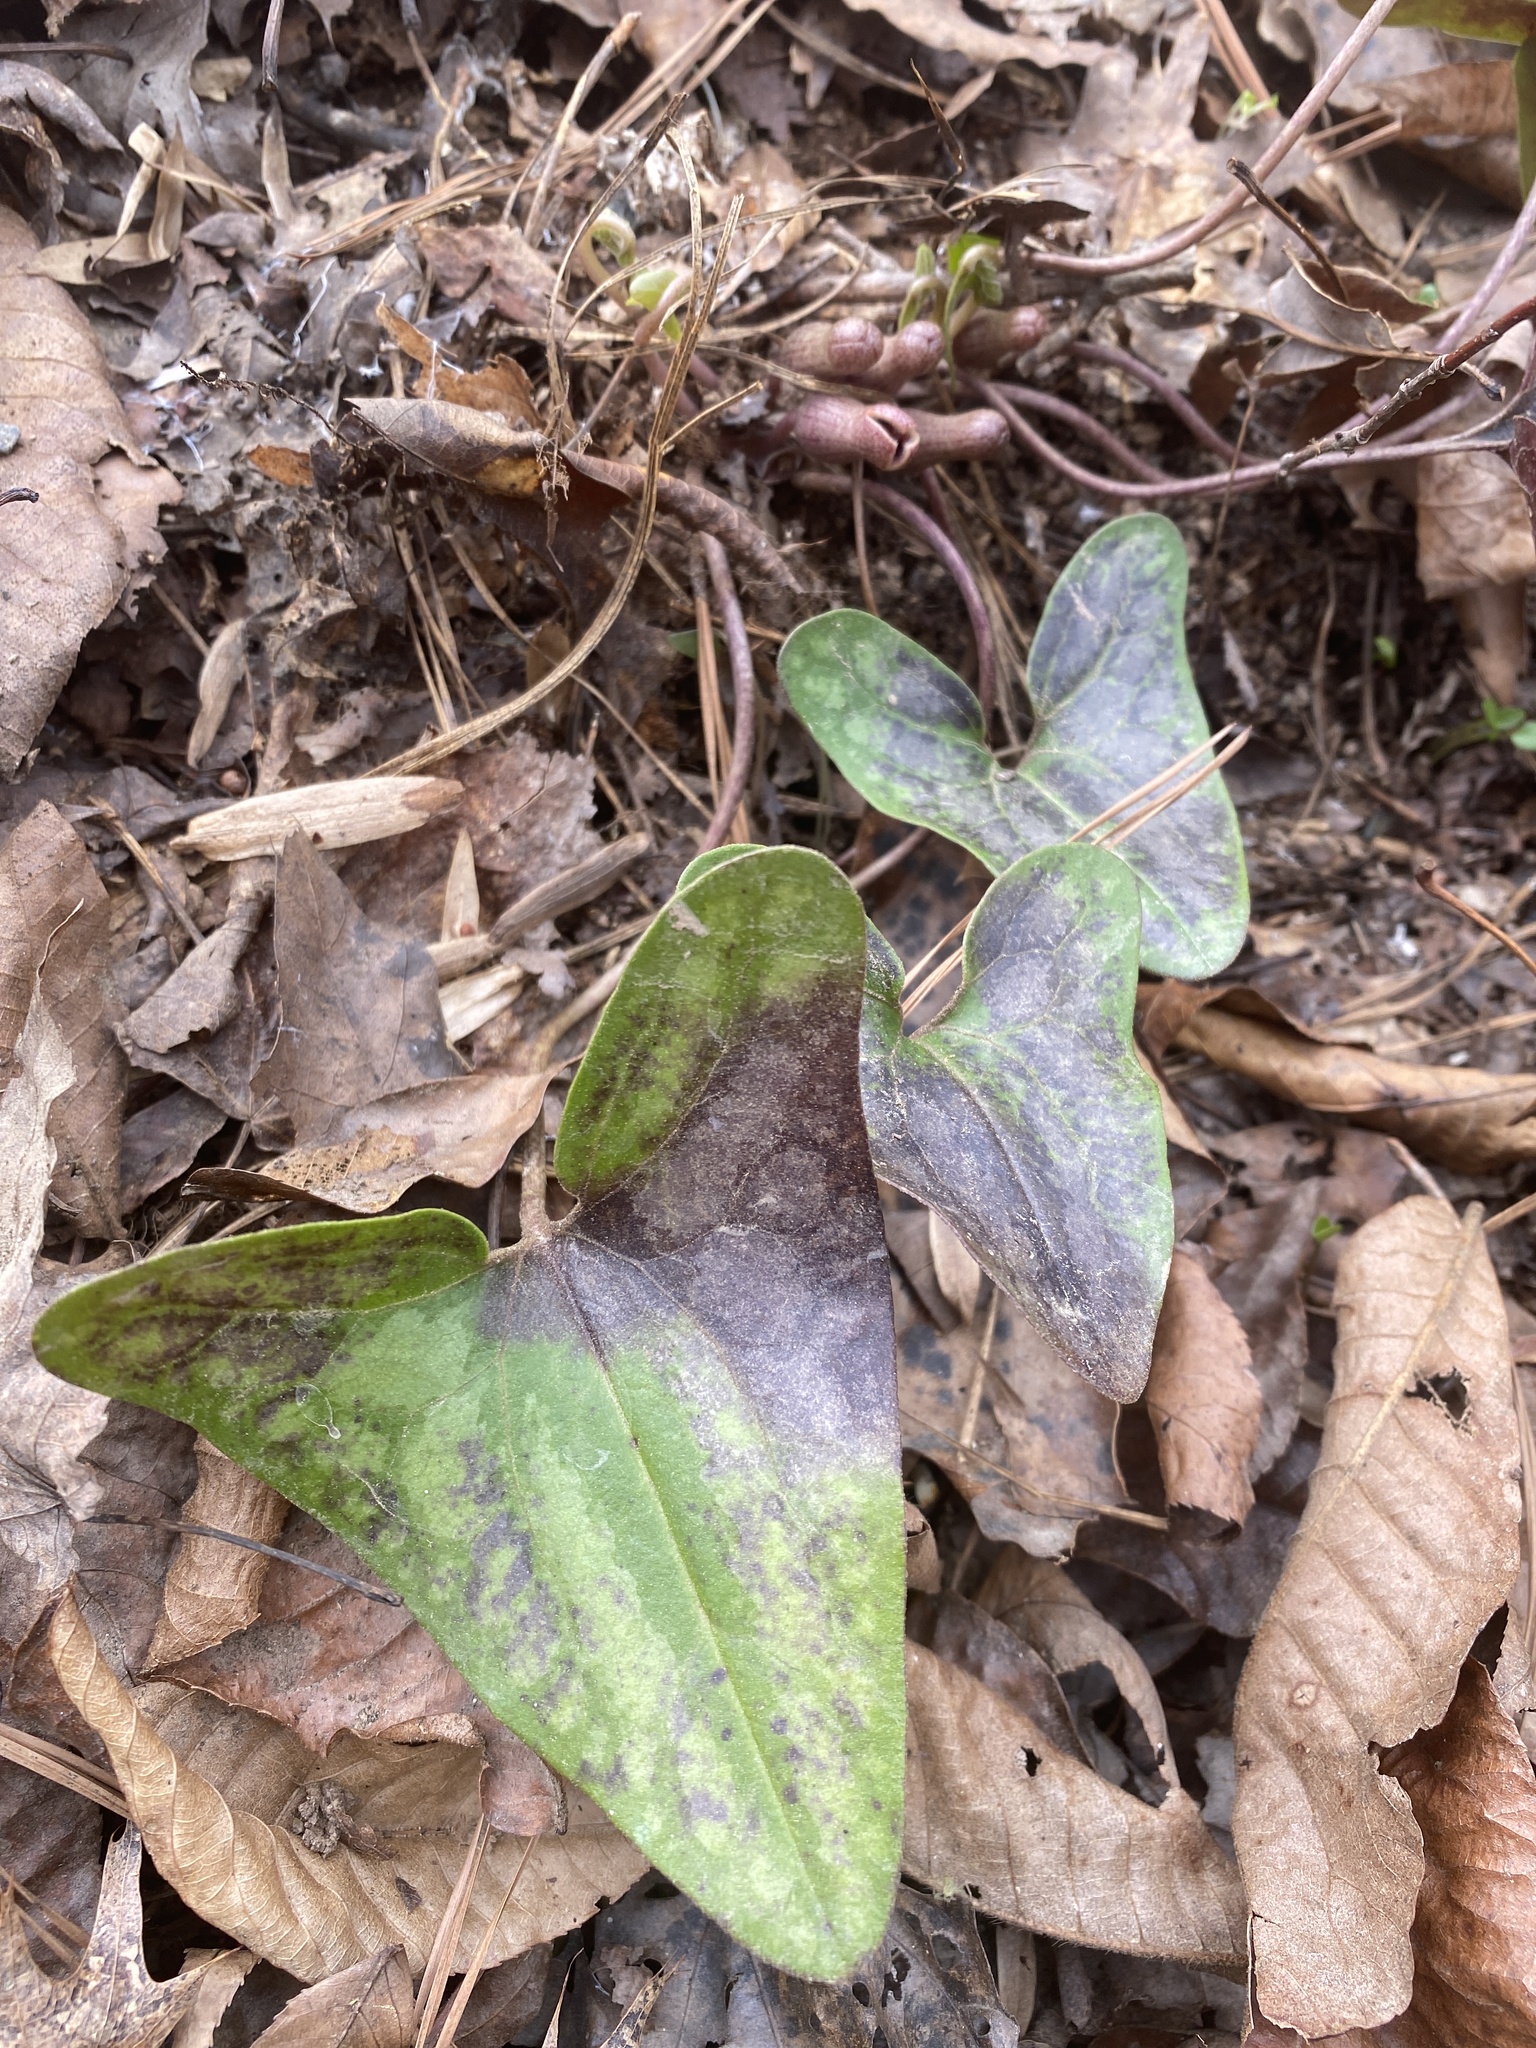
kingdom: Plantae
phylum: Tracheophyta
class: Magnoliopsida
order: Piperales
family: Aristolochiaceae
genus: Hexastylis
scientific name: Hexastylis arifolia
